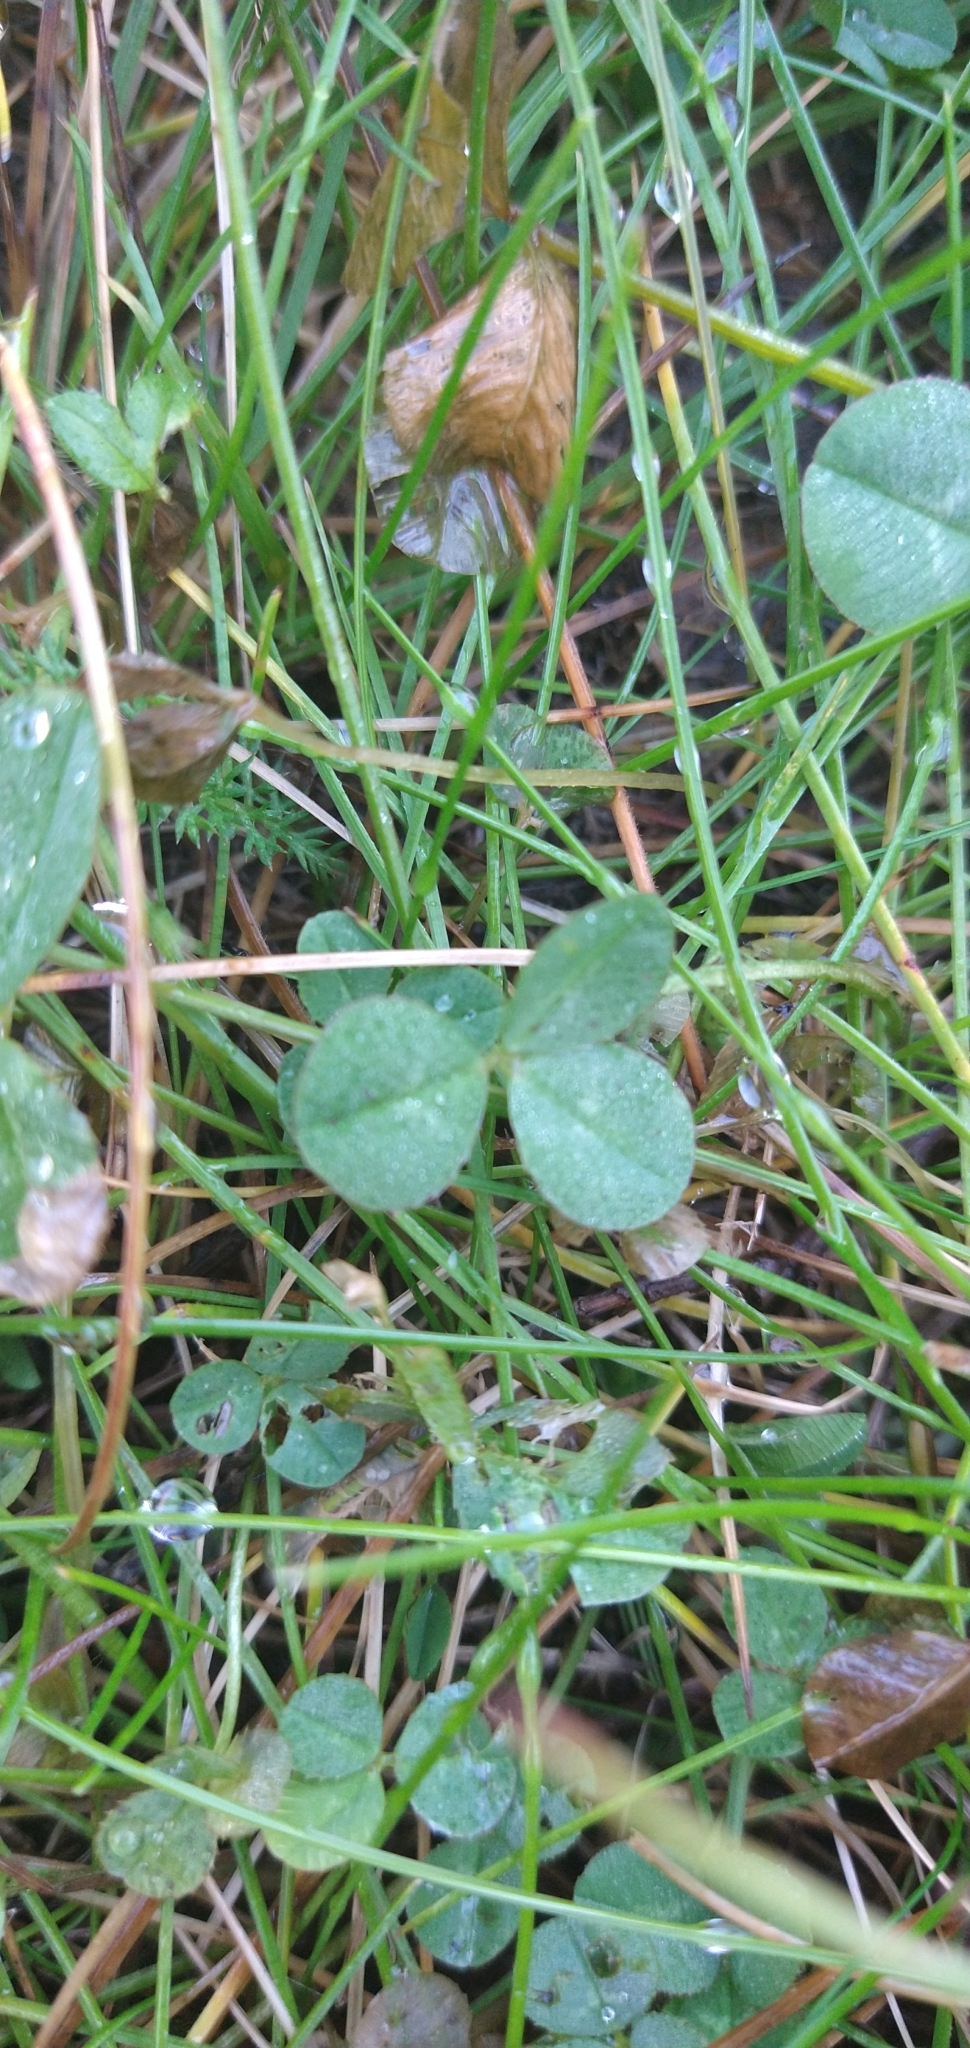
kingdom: Plantae
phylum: Tracheophyta
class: Magnoliopsida
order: Fabales
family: Fabaceae
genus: Trifolium
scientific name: Trifolium repens
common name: White clover
